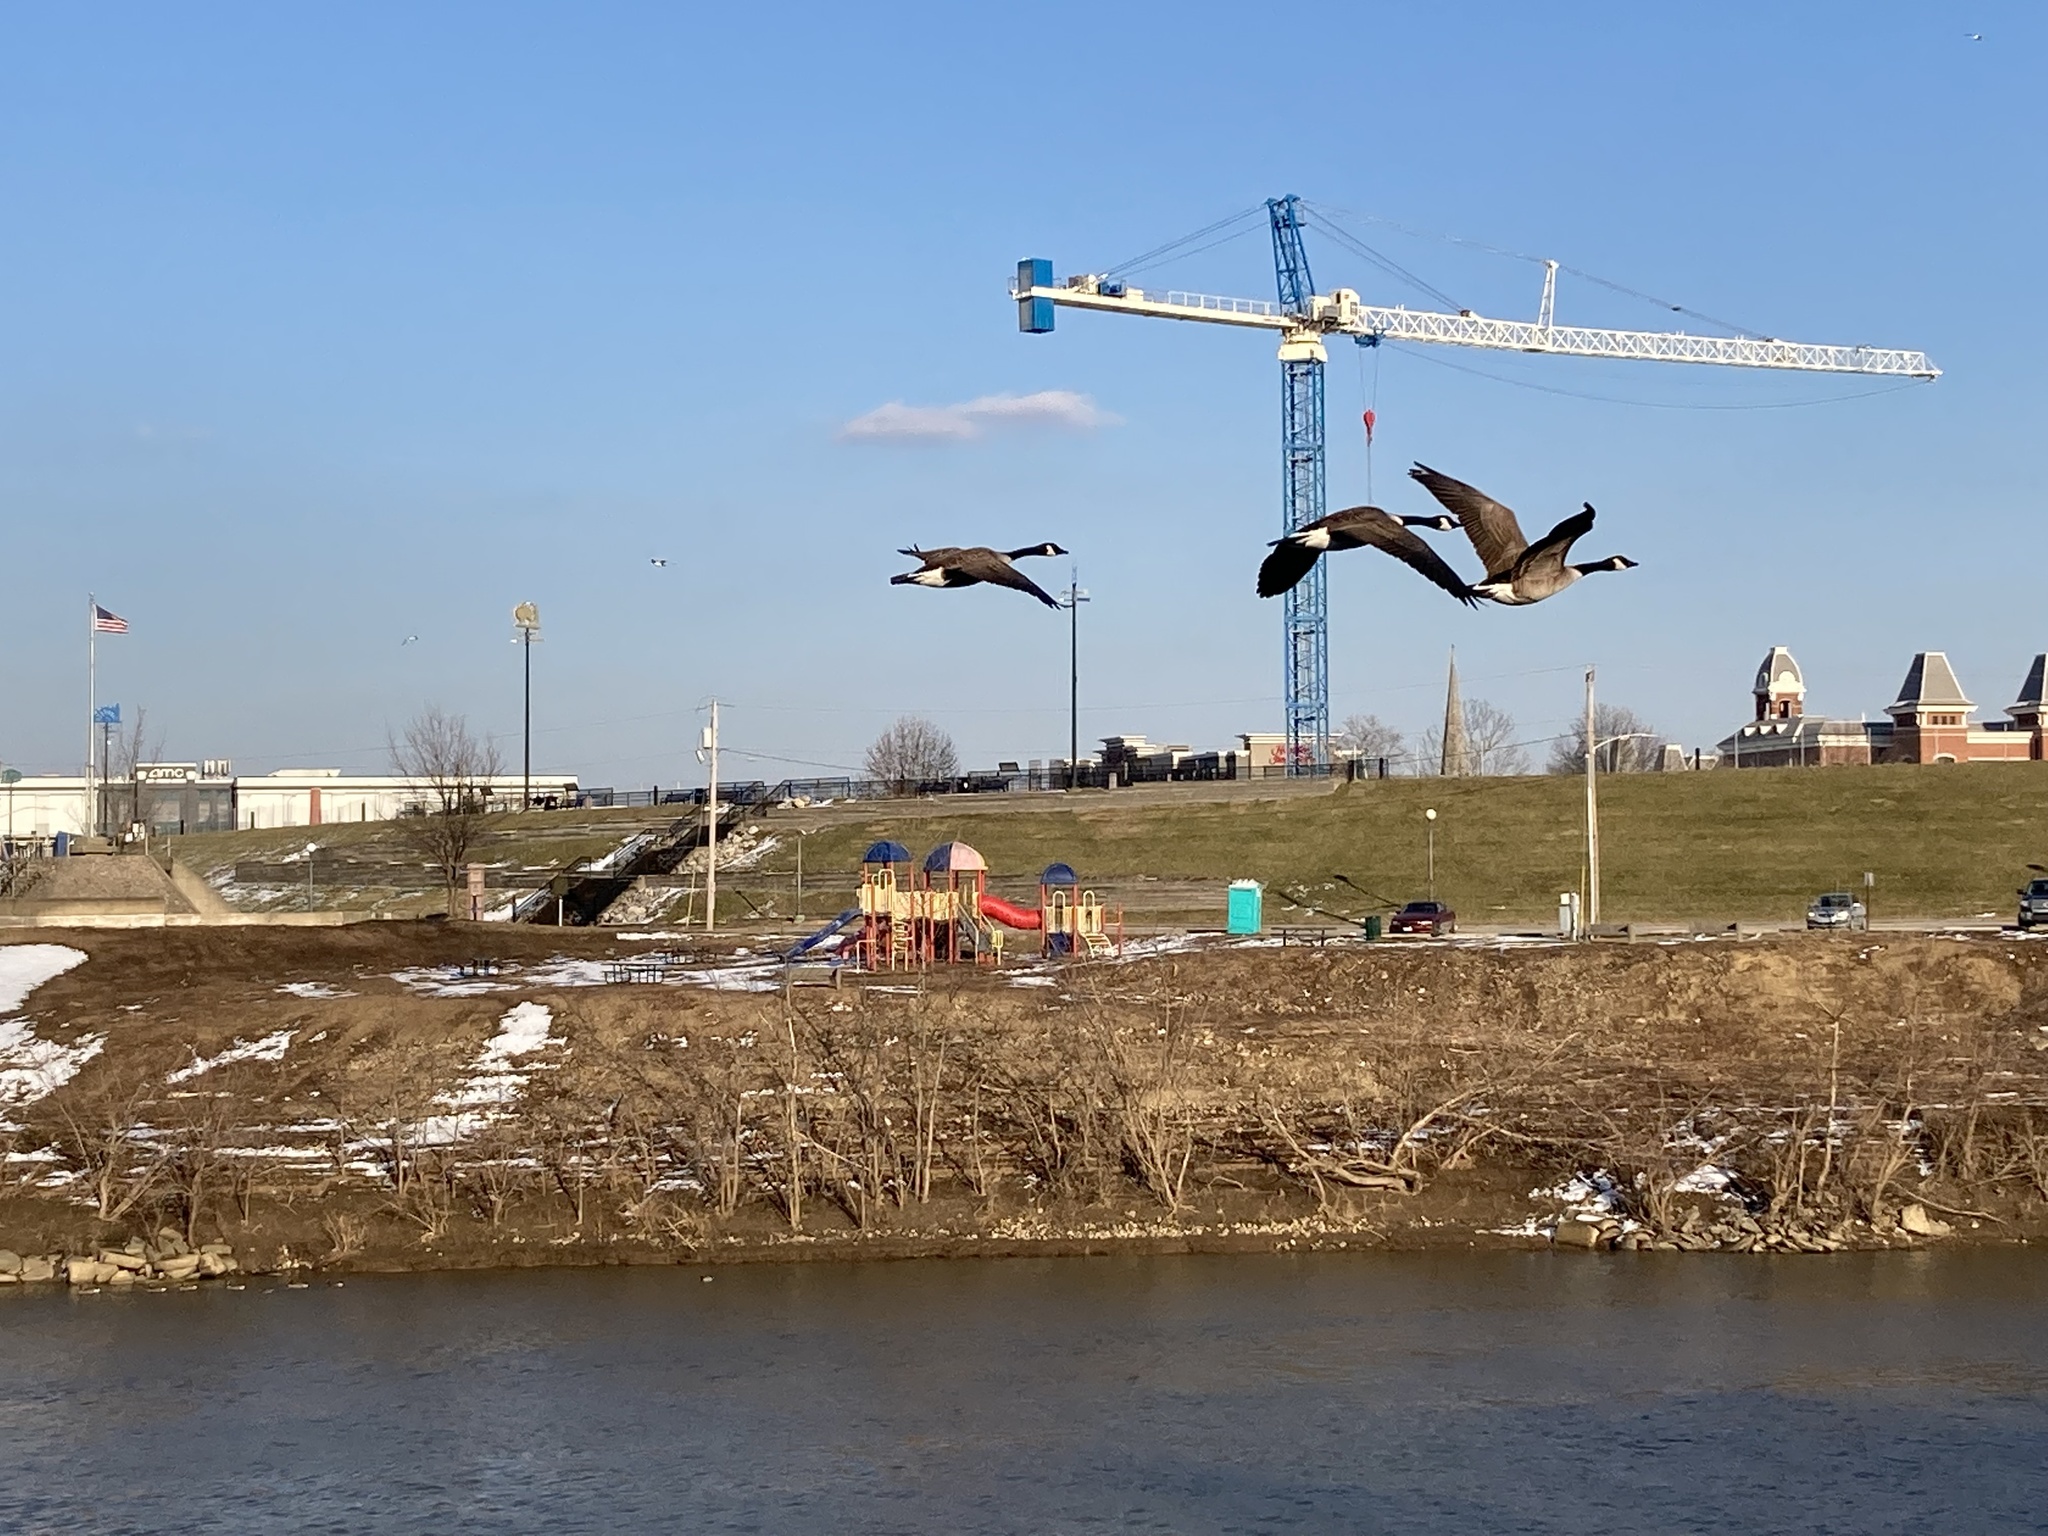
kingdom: Animalia
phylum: Chordata
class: Aves
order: Anseriformes
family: Anatidae
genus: Branta
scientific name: Branta canadensis
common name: Canada goose
